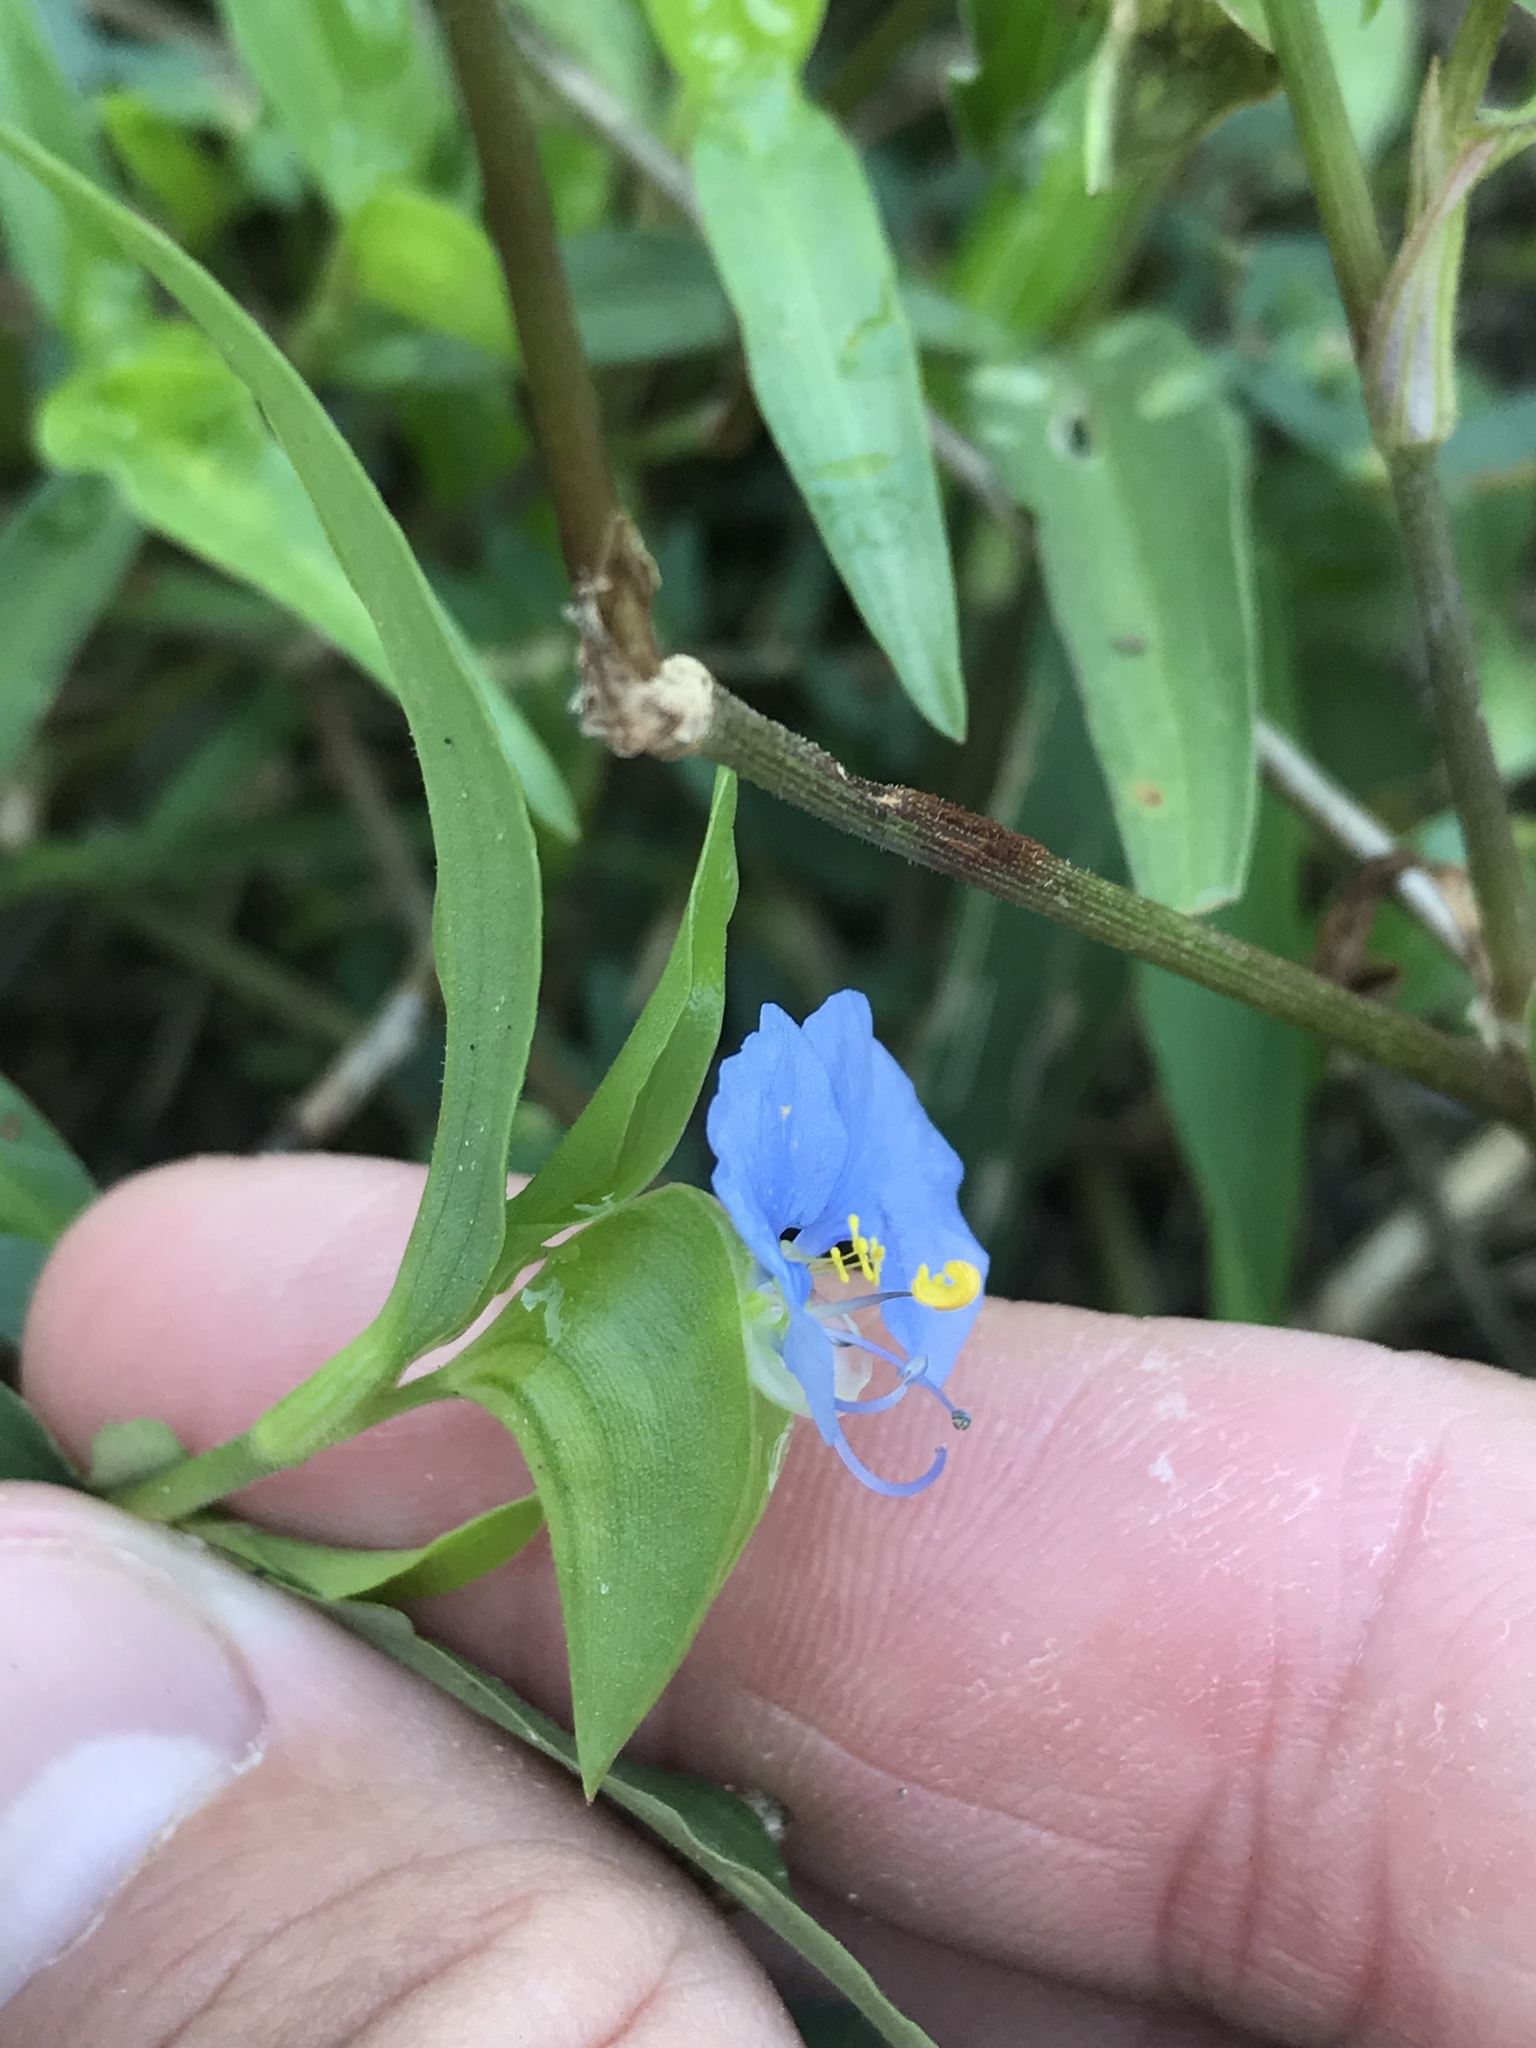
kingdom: Plantae
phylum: Tracheophyta
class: Liliopsida
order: Commelinales
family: Commelinaceae
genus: Commelina
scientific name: Commelina erecta
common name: Blousel blommetjie
